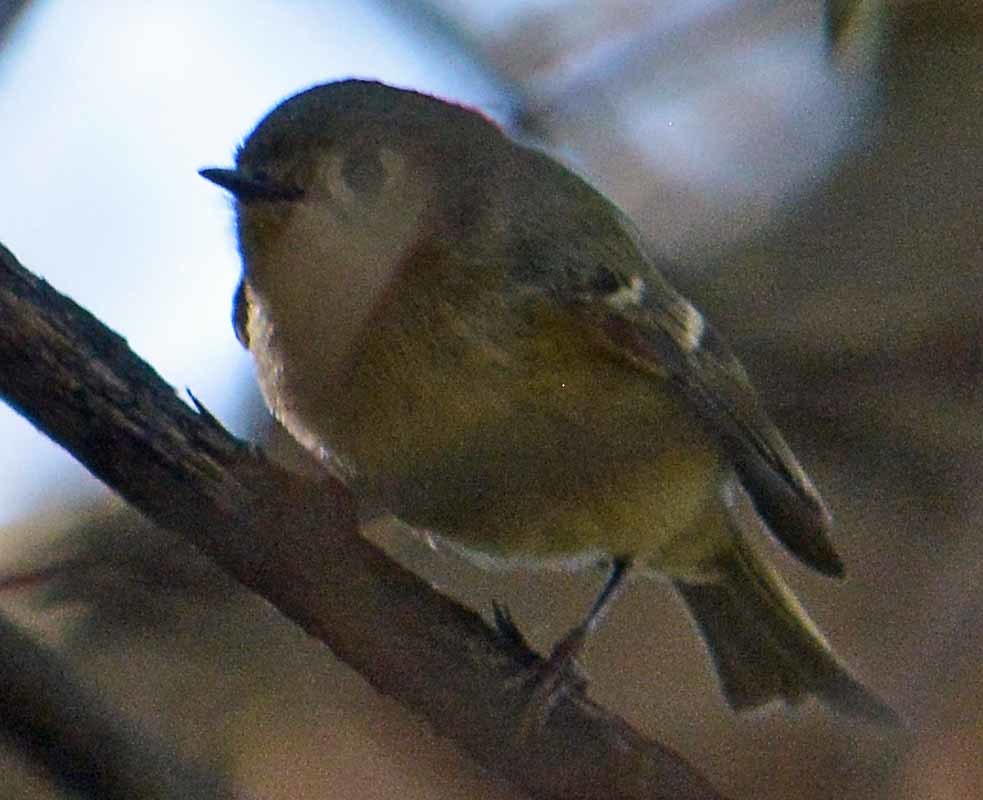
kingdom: Animalia
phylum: Chordata
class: Aves
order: Passeriformes
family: Regulidae
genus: Regulus
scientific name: Regulus calendula
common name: Ruby-crowned kinglet
